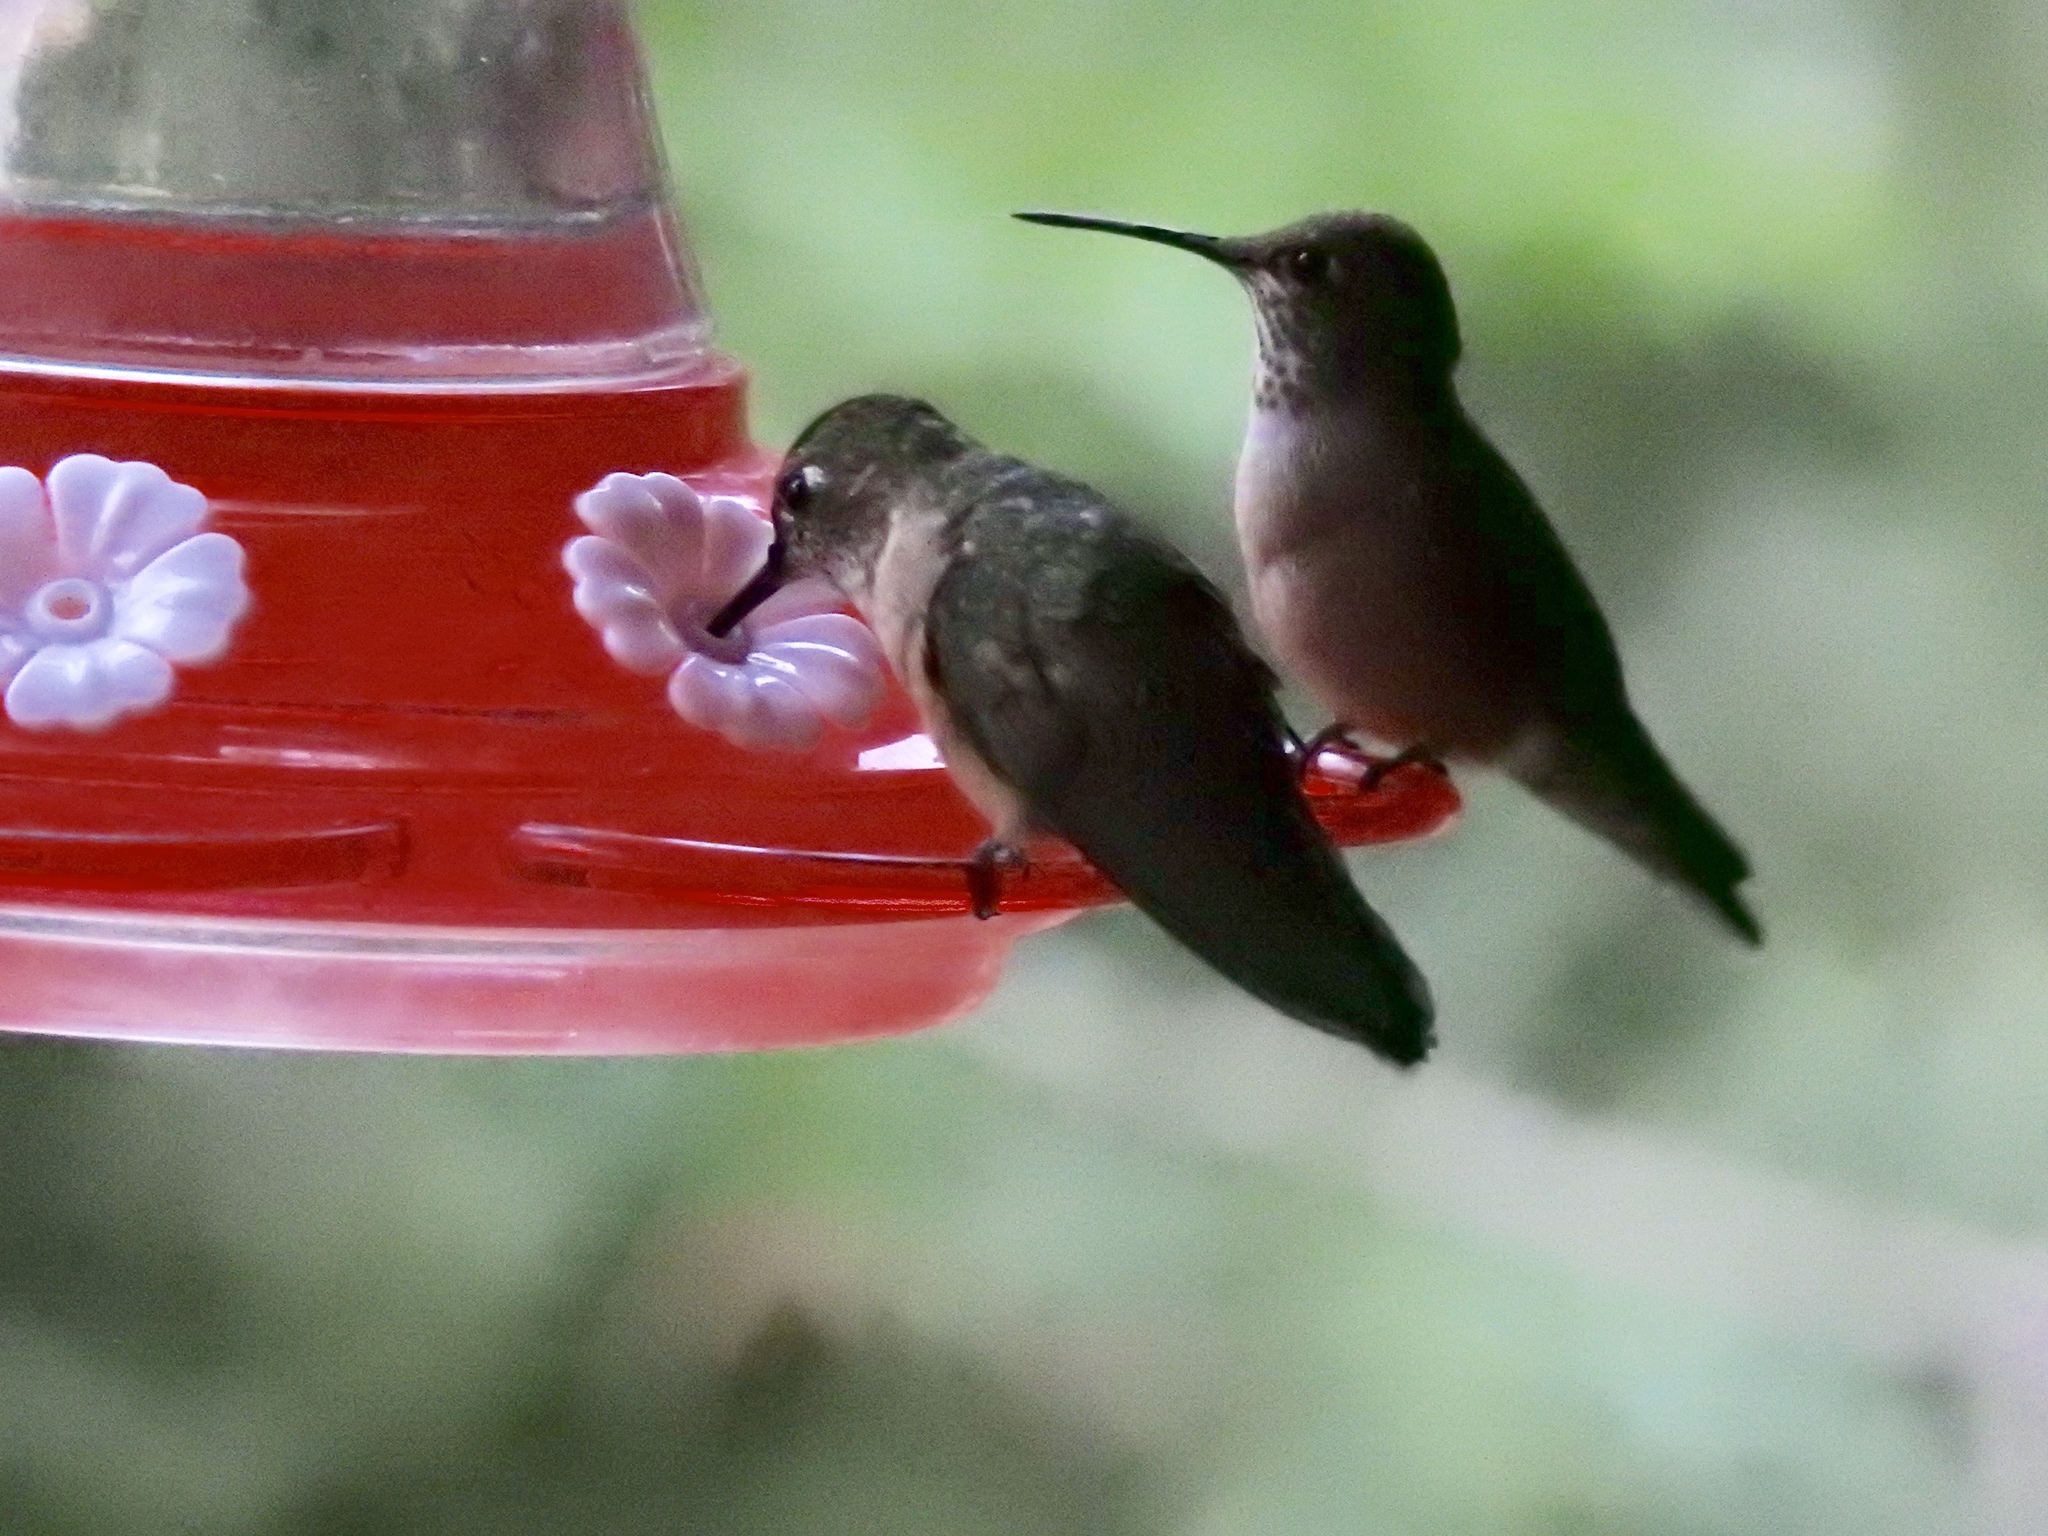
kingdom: Animalia
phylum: Chordata
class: Aves
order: Apodiformes
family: Trochilidae
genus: Selasphorus
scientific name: Selasphorus platycercus
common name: Broad-tailed hummingbird
